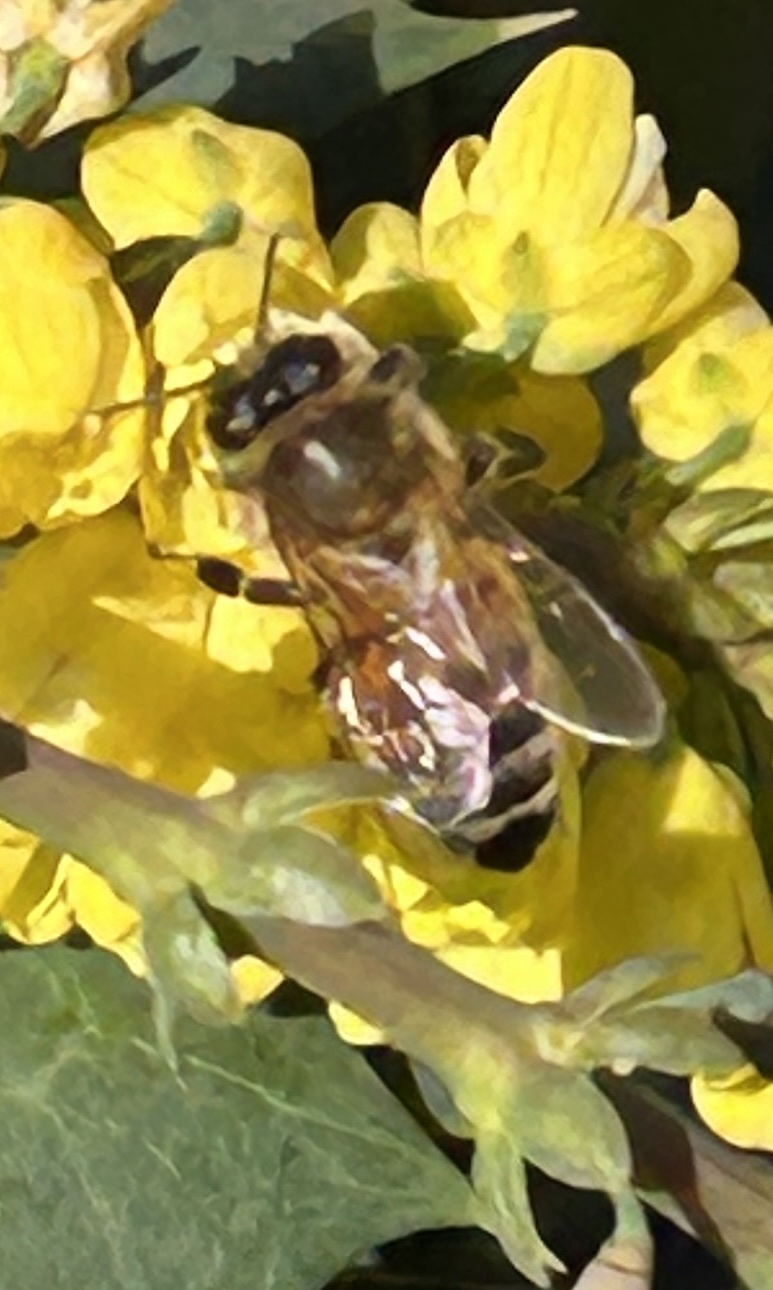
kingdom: Animalia
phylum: Arthropoda
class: Insecta
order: Hymenoptera
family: Apidae
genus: Apis
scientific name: Apis mellifera
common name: Honey bee
